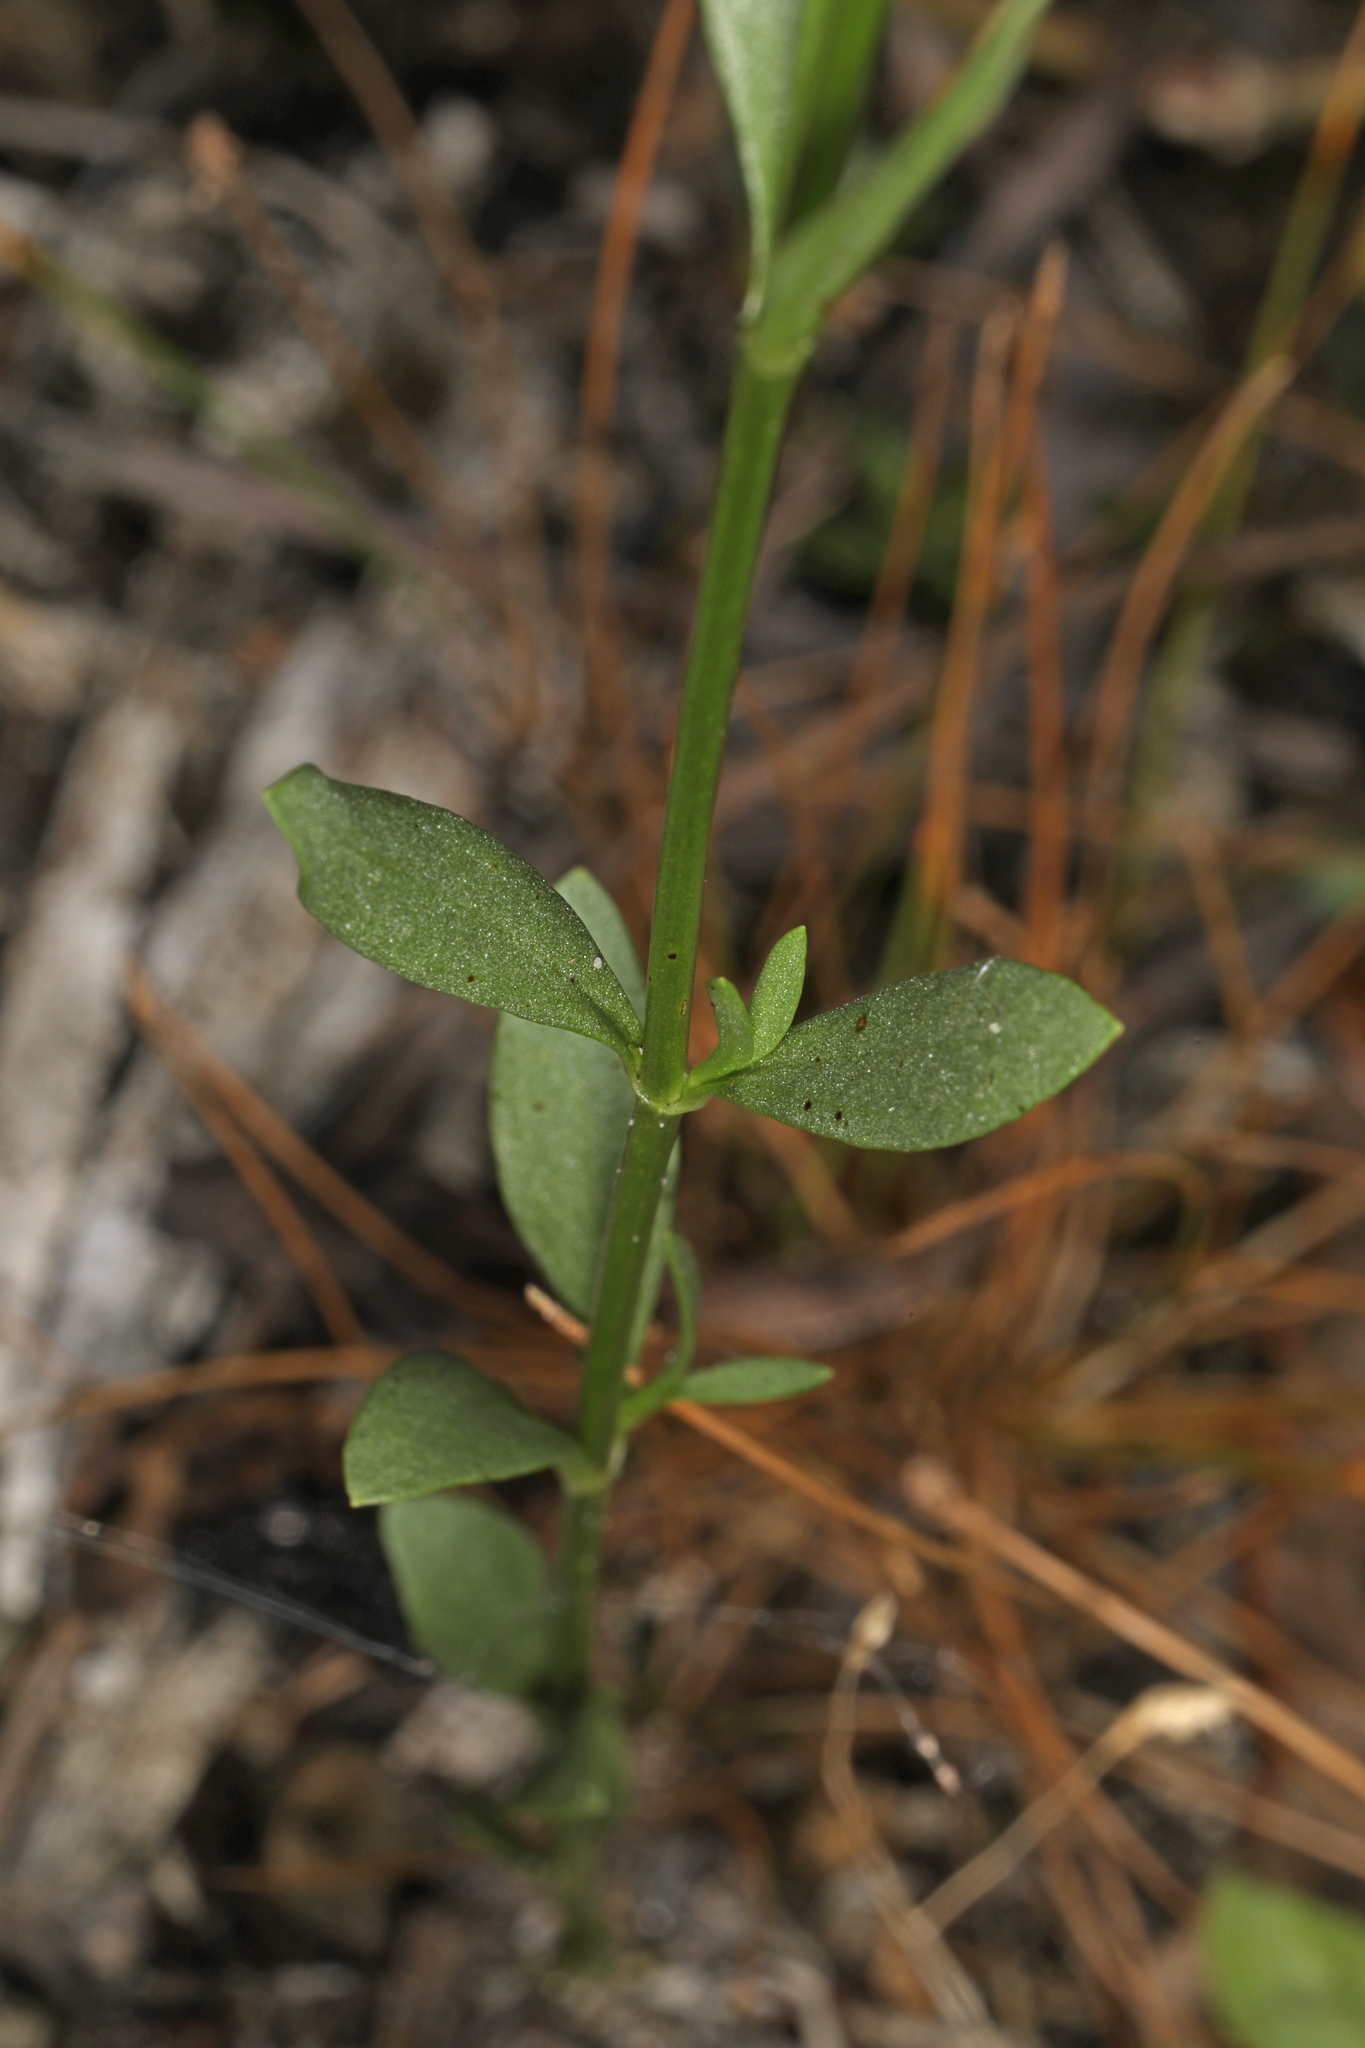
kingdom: Plantae
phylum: Tracheophyta
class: Magnoliopsida
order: Gentianales
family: Gentianaceae
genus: Sabatia
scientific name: Sabatia stellaris
